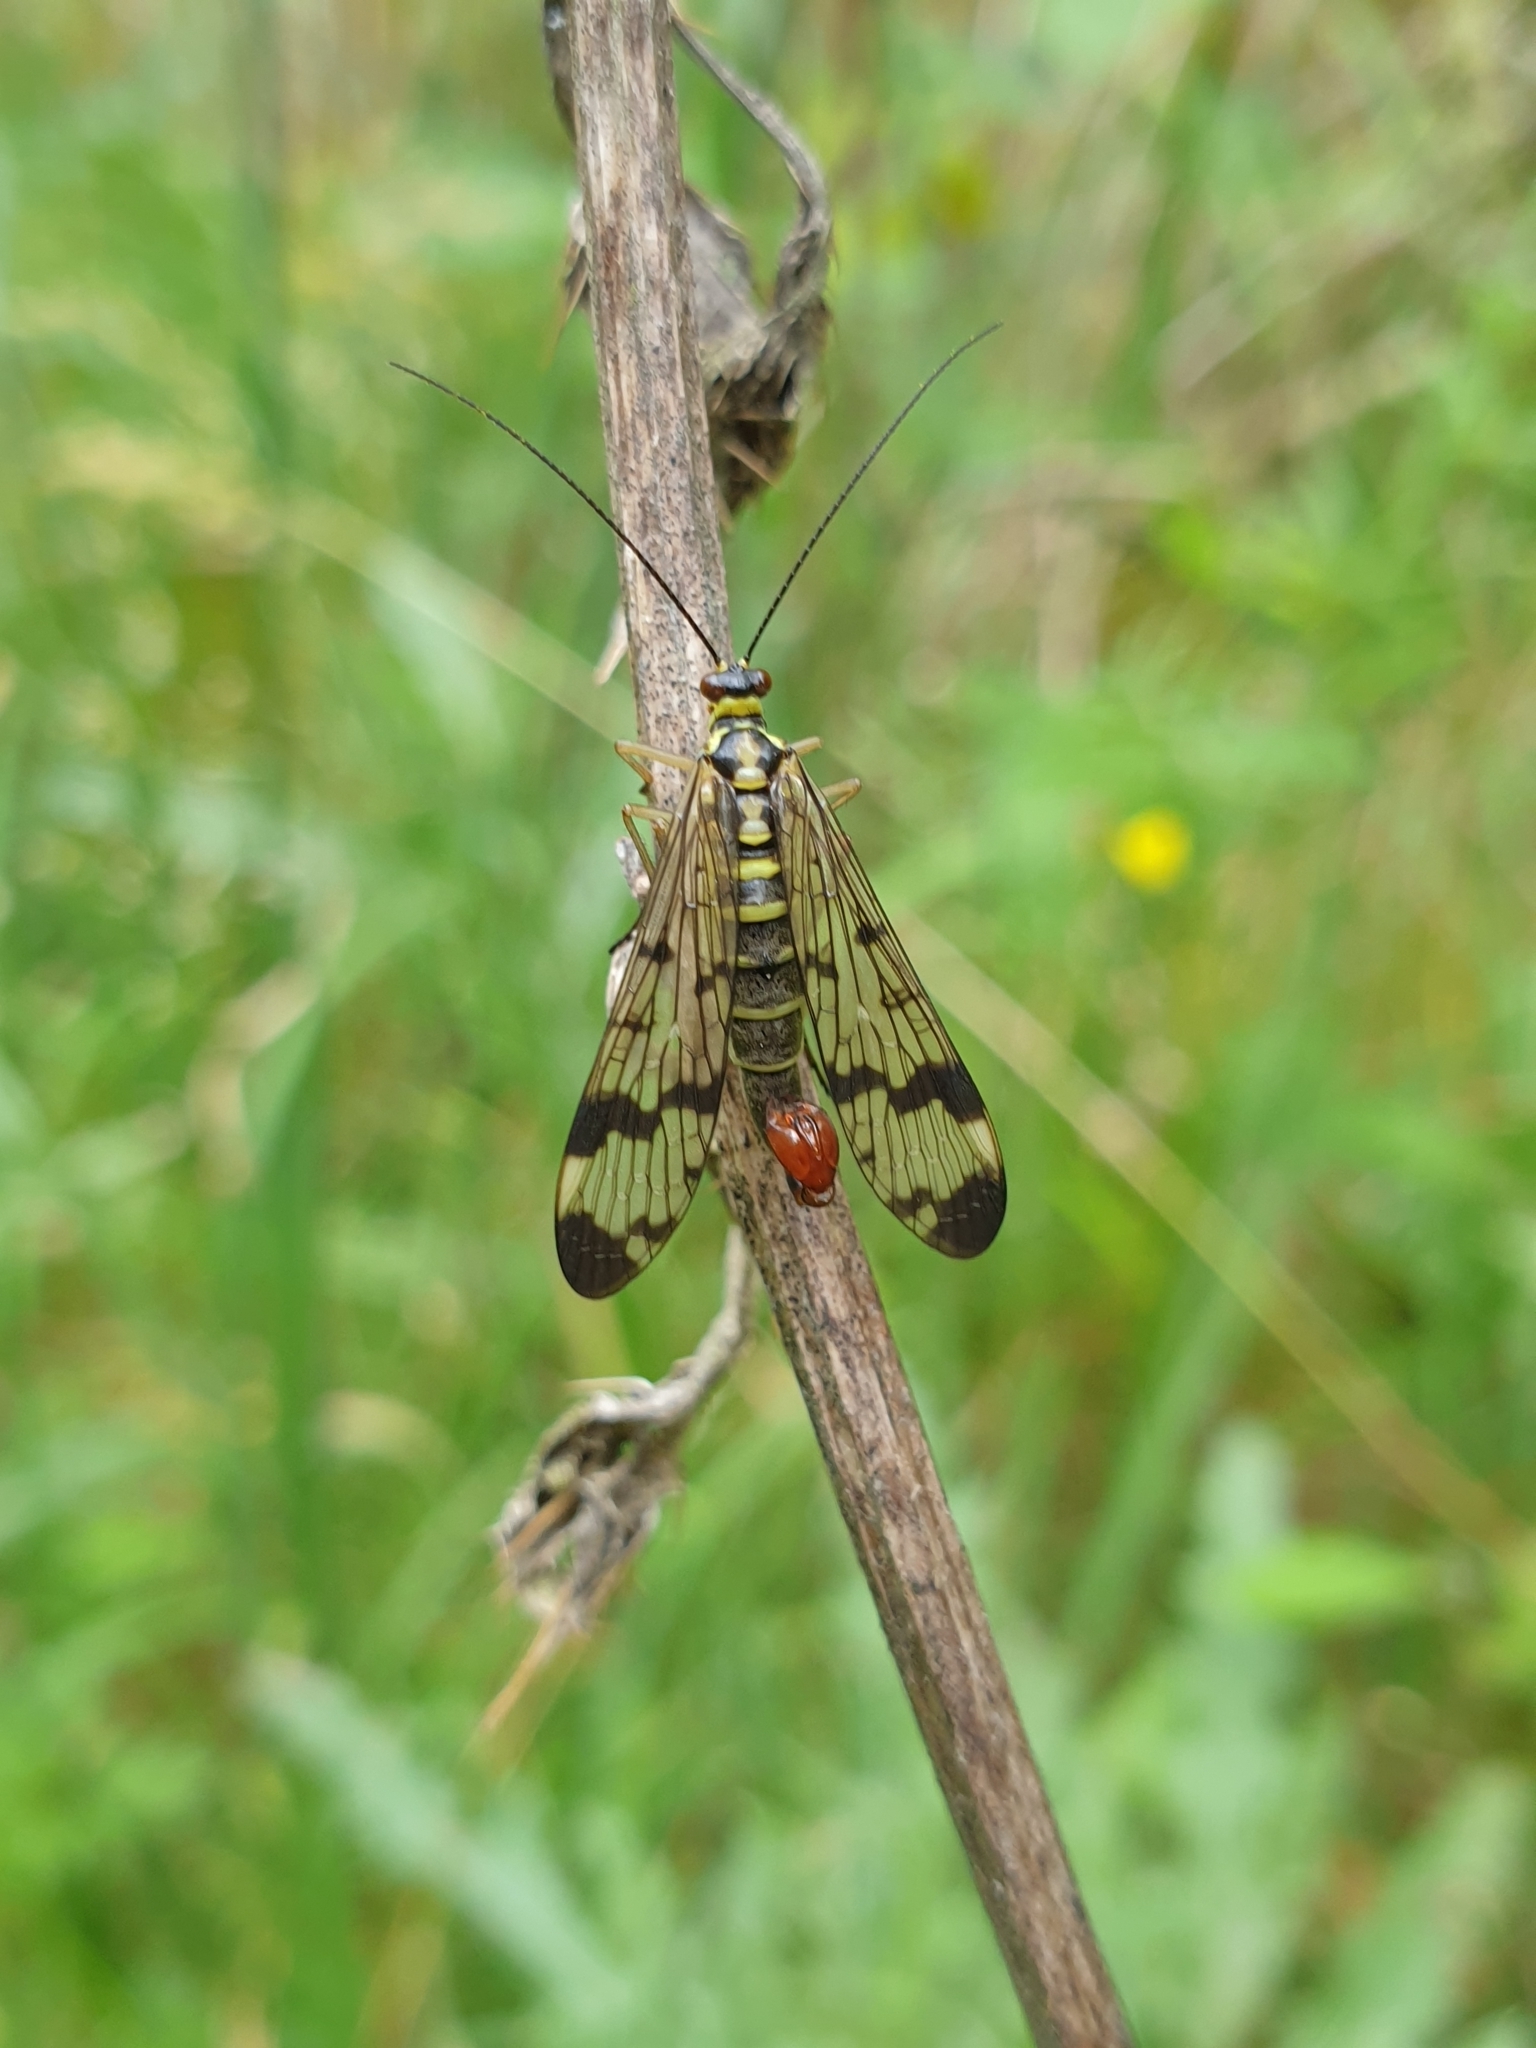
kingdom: Animalia
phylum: Arthropoda
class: Insecta
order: Mecoptera
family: Panorpidae
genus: Panorpa
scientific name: Panorpa communis
